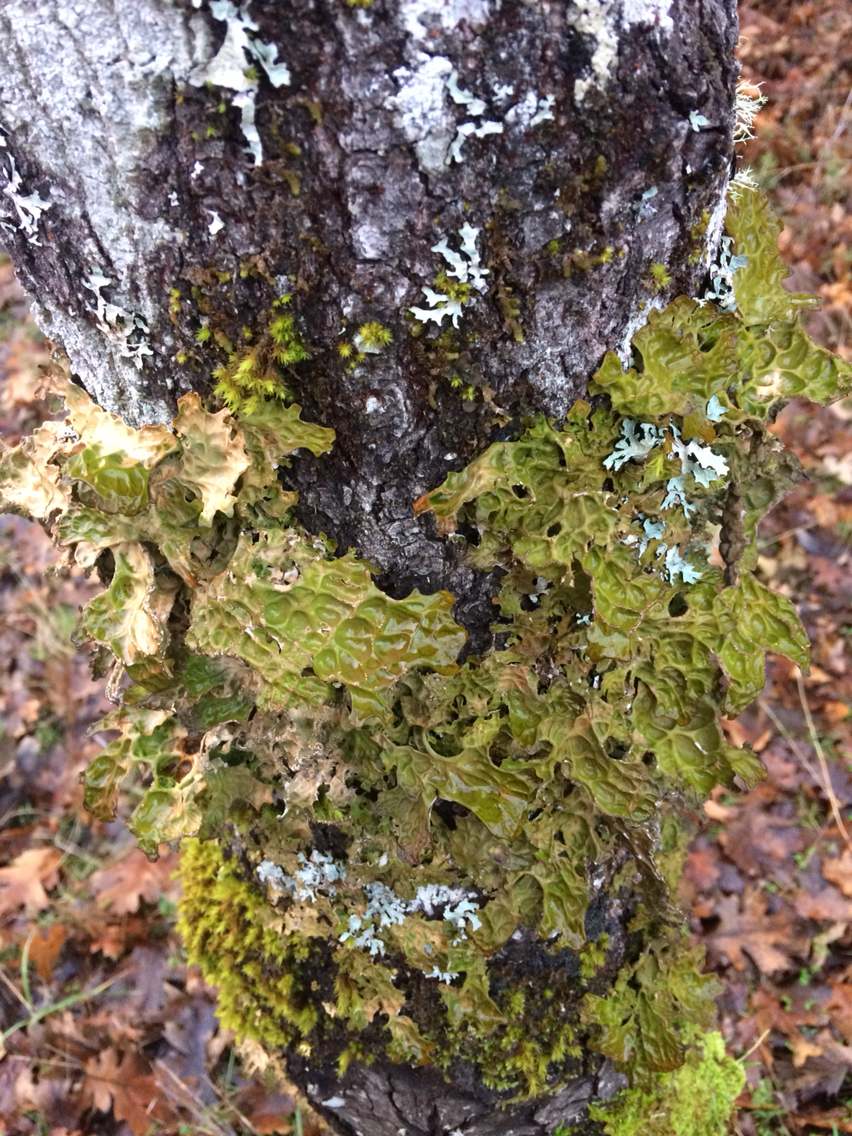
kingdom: Fungi
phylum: Ascomycota
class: Lecanoromycetes
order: Peltigerales
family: Lobariaceae
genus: Lobaria
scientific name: Lobaria pulmonaria
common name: Lungwort
